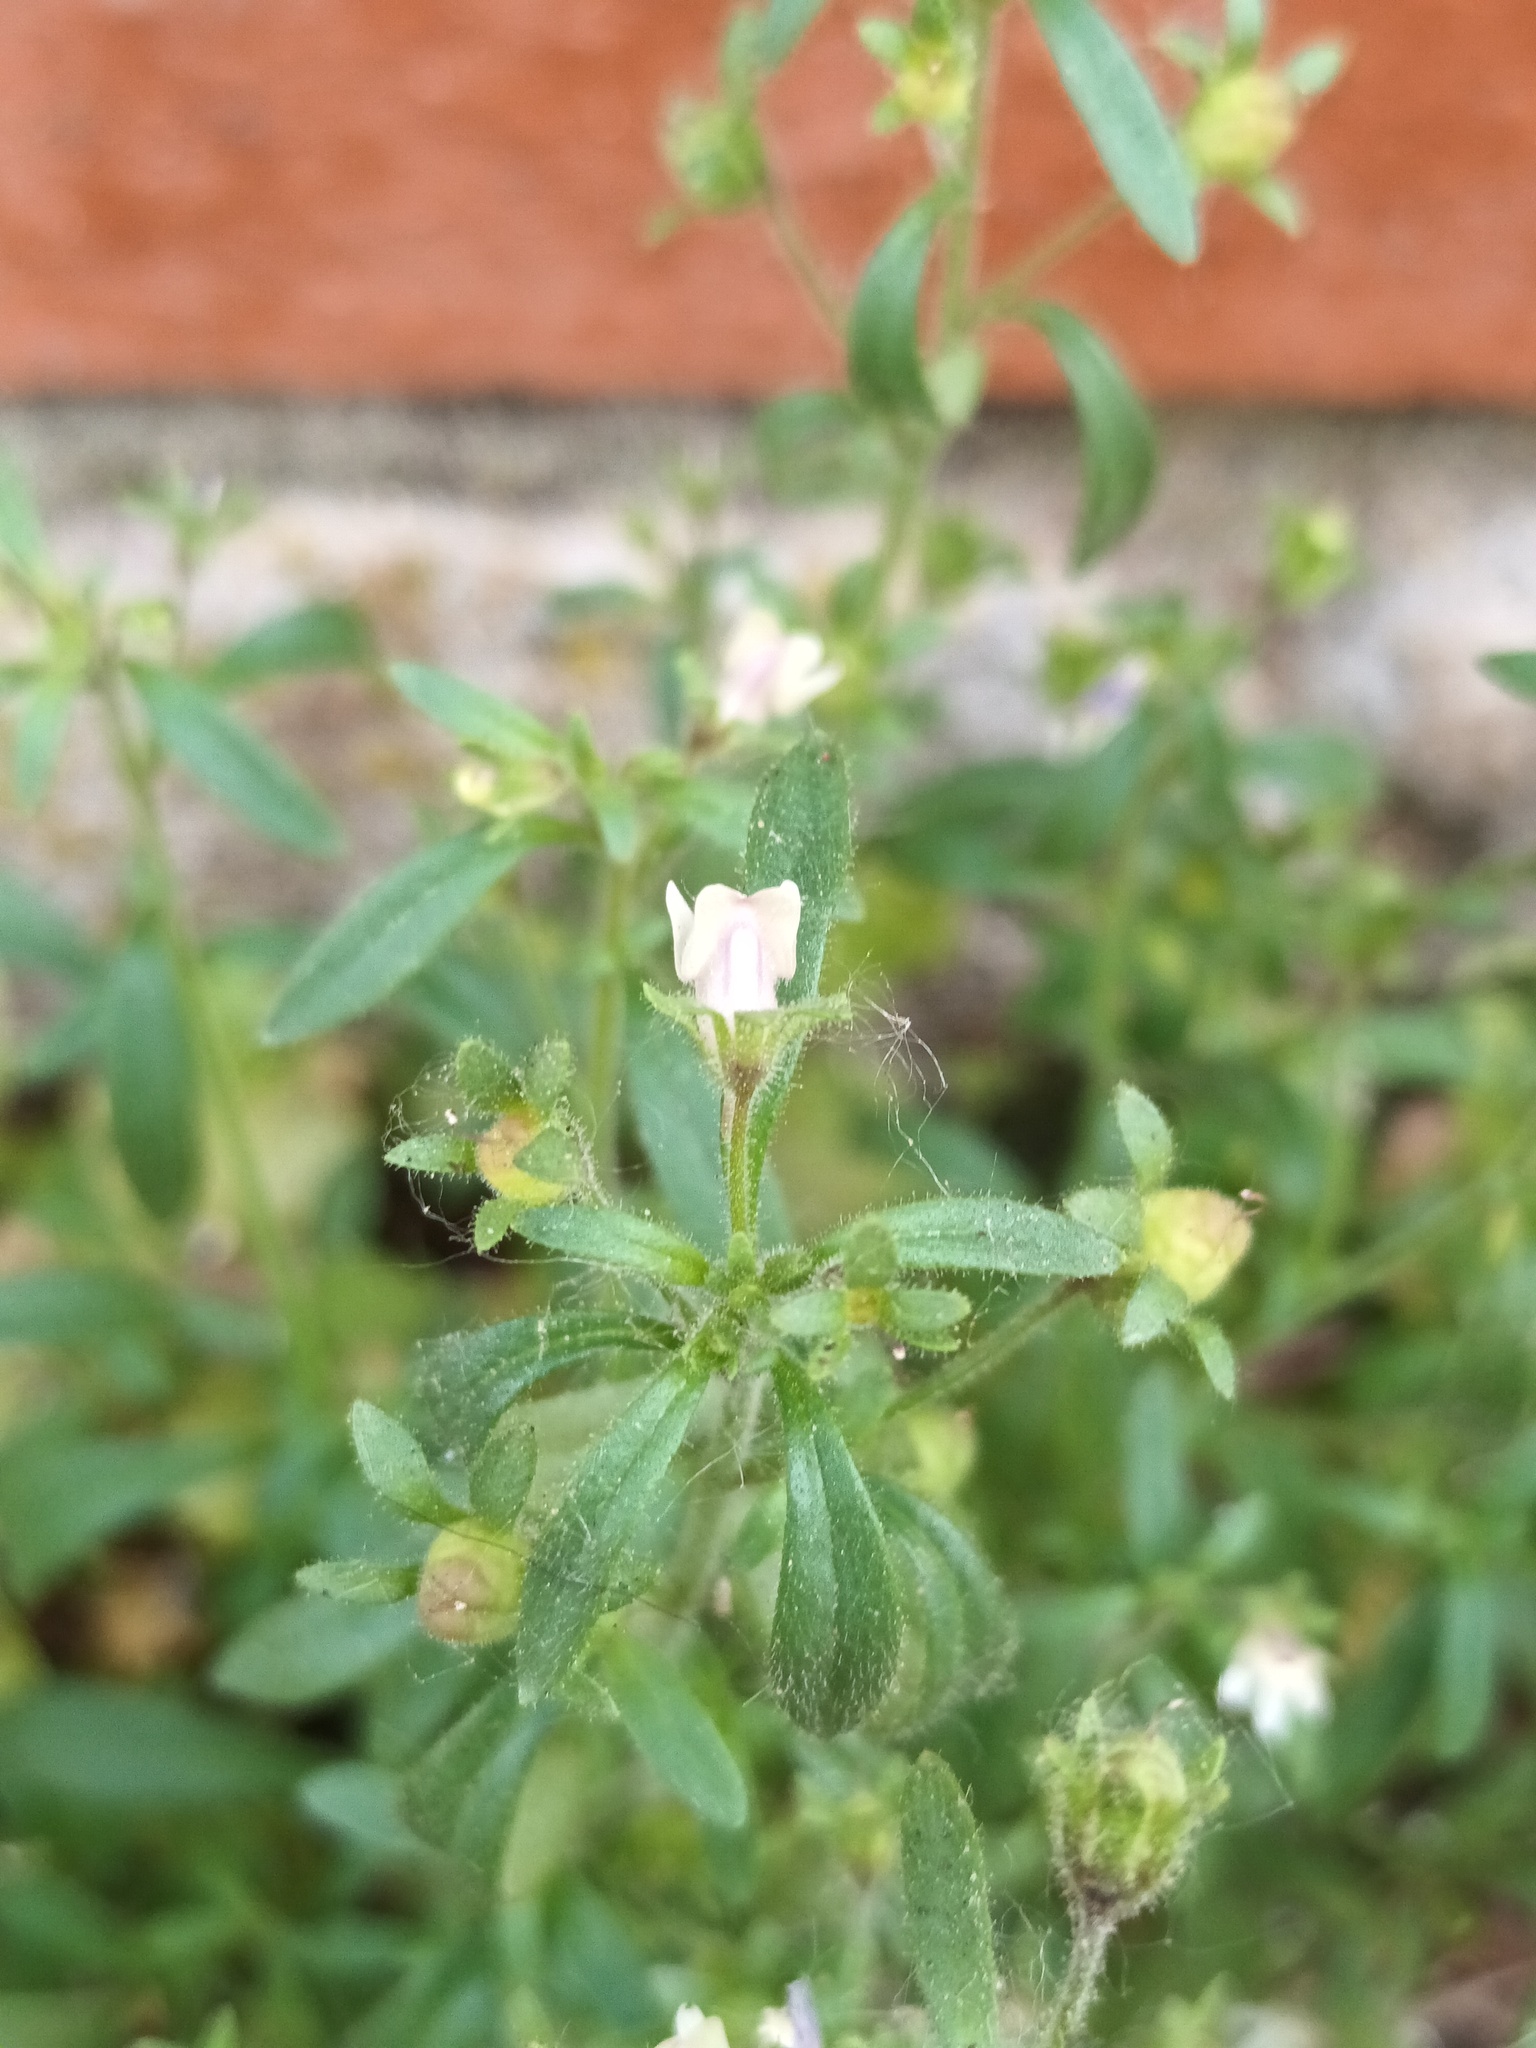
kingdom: Plantae
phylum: Tracheophyta
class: Magnoliopsida
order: Lamiales
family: Plantaginaceae
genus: Chaenorhinum
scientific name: Chaenorhinum minus
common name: Dwarf snapdragon
